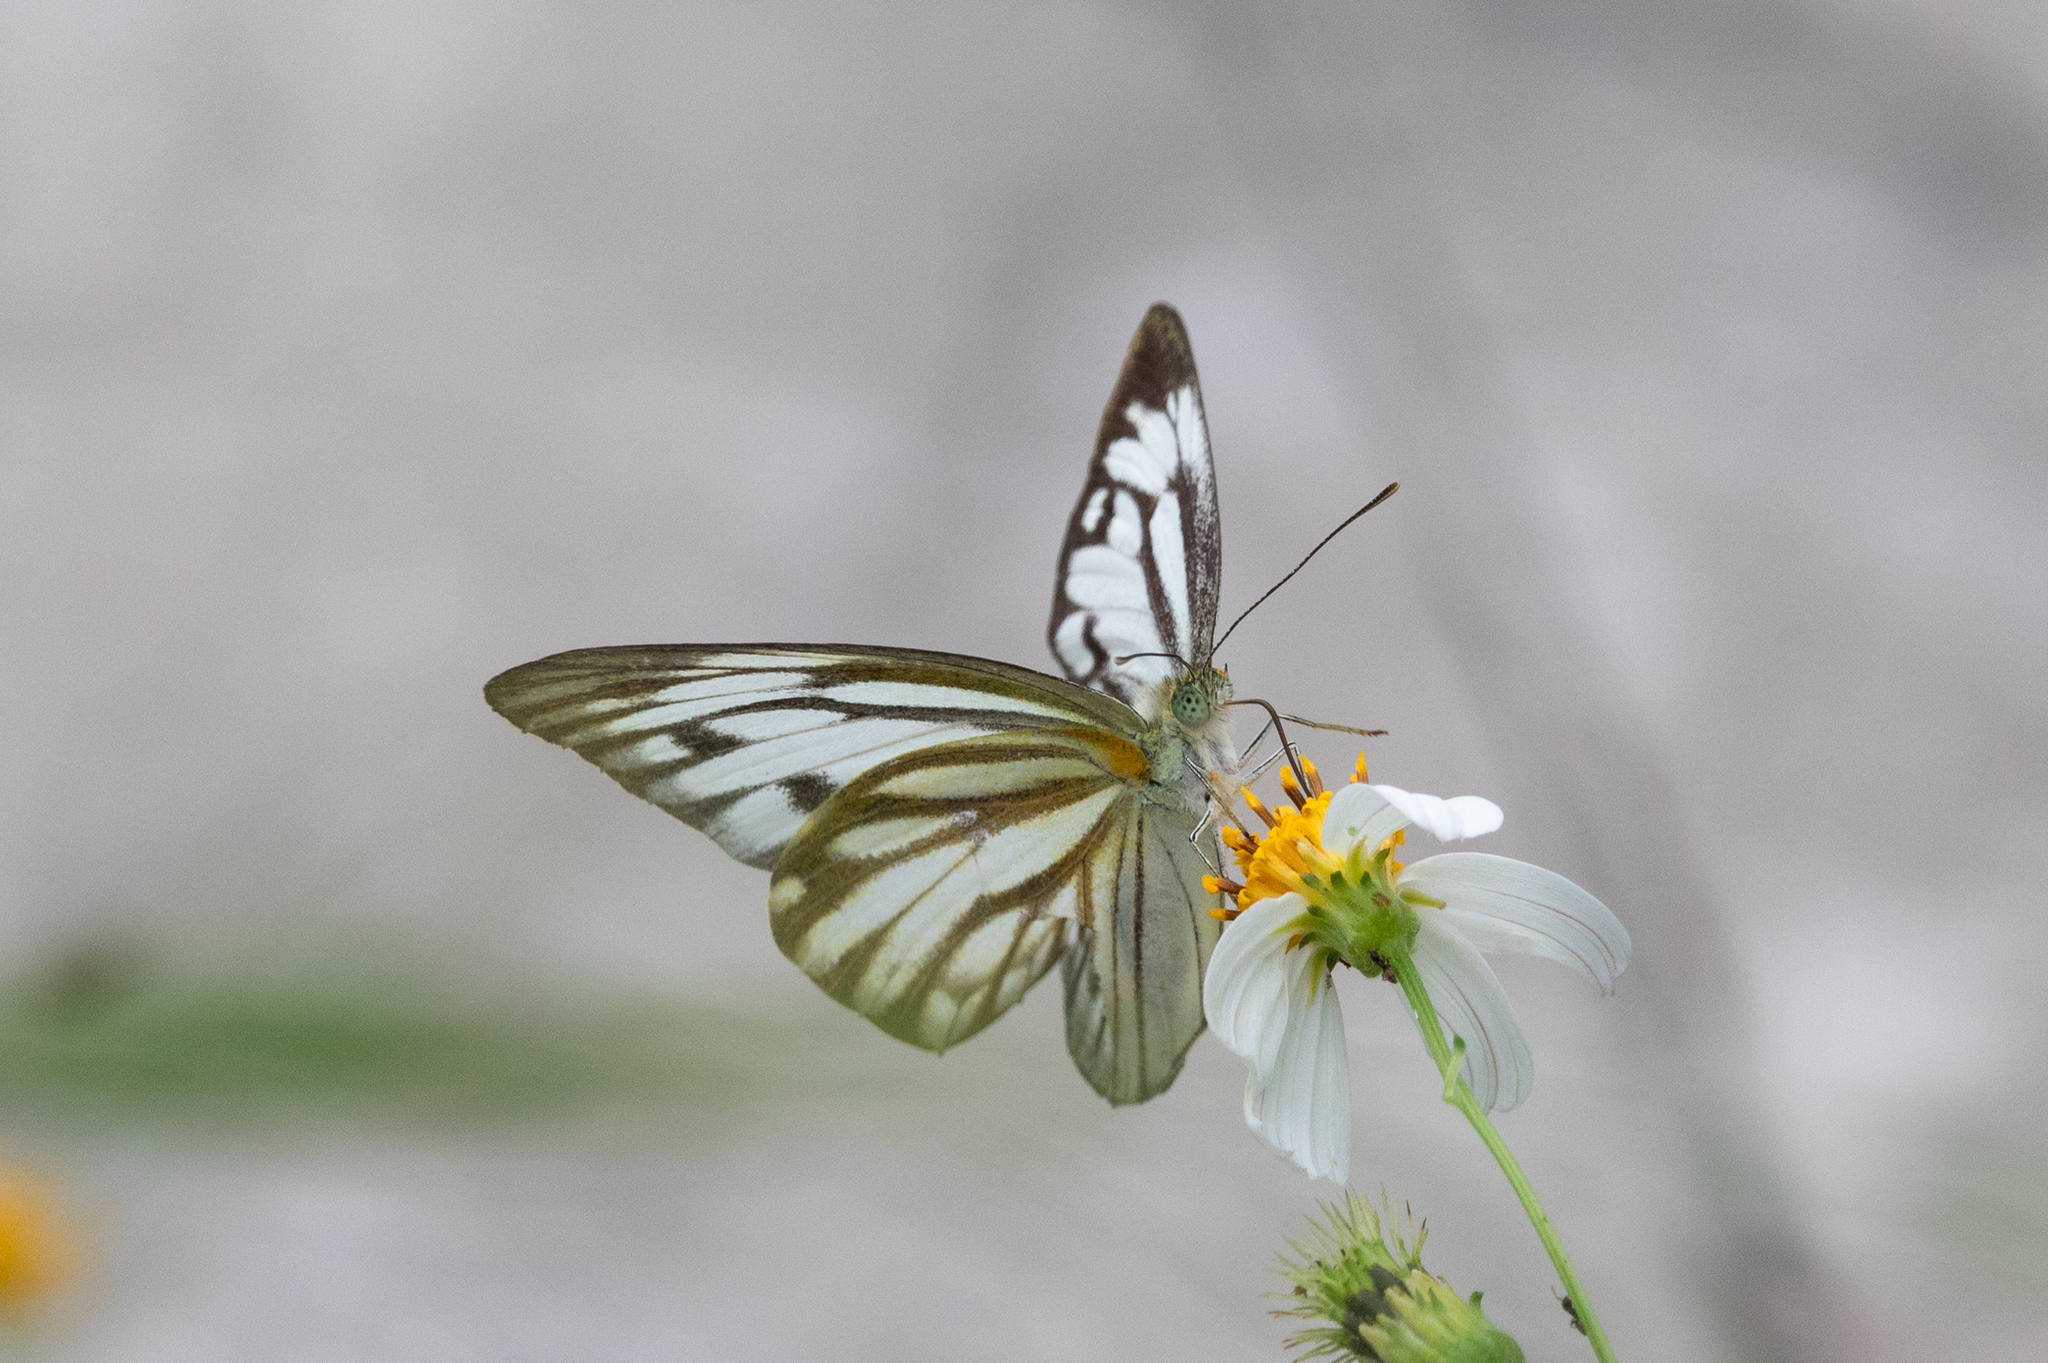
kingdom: Animalia
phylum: Arthropoda
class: Insecta
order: Lepidoptera
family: Pieridae
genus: Cepora
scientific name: Cepora nerissa
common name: Common gull
